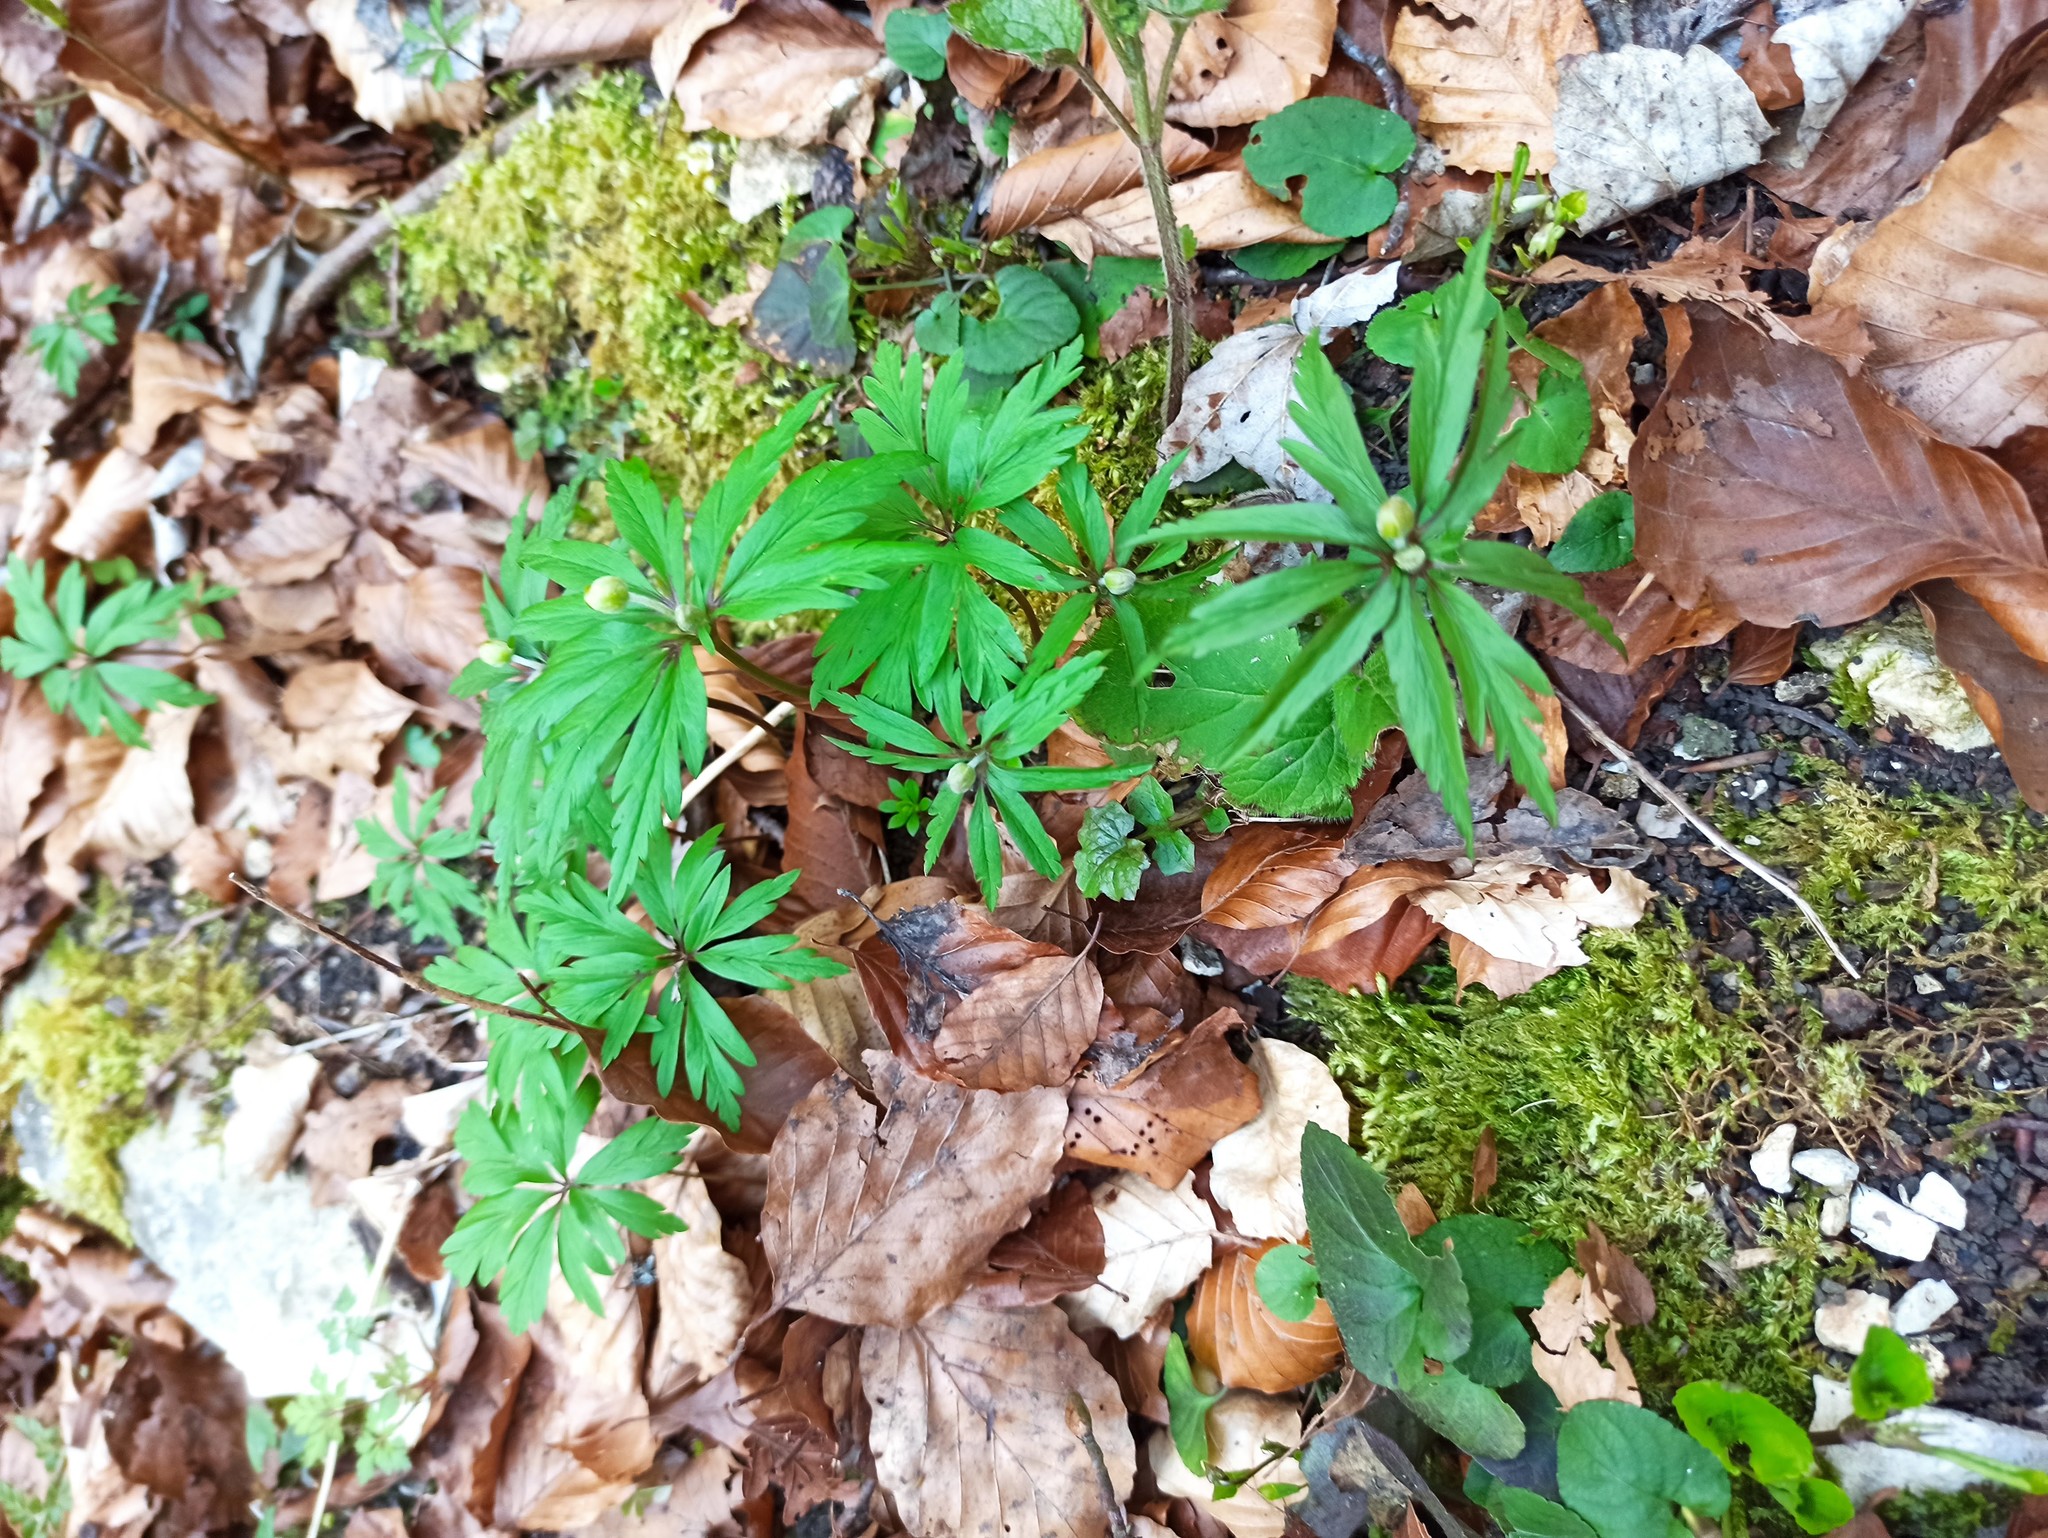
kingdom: Plantae
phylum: Tracheophyta
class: Magnoliopsida
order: Ranunculales
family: Ranunculaceae
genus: Anemone
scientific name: Anemone ranunculoides
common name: Yellow anemone
